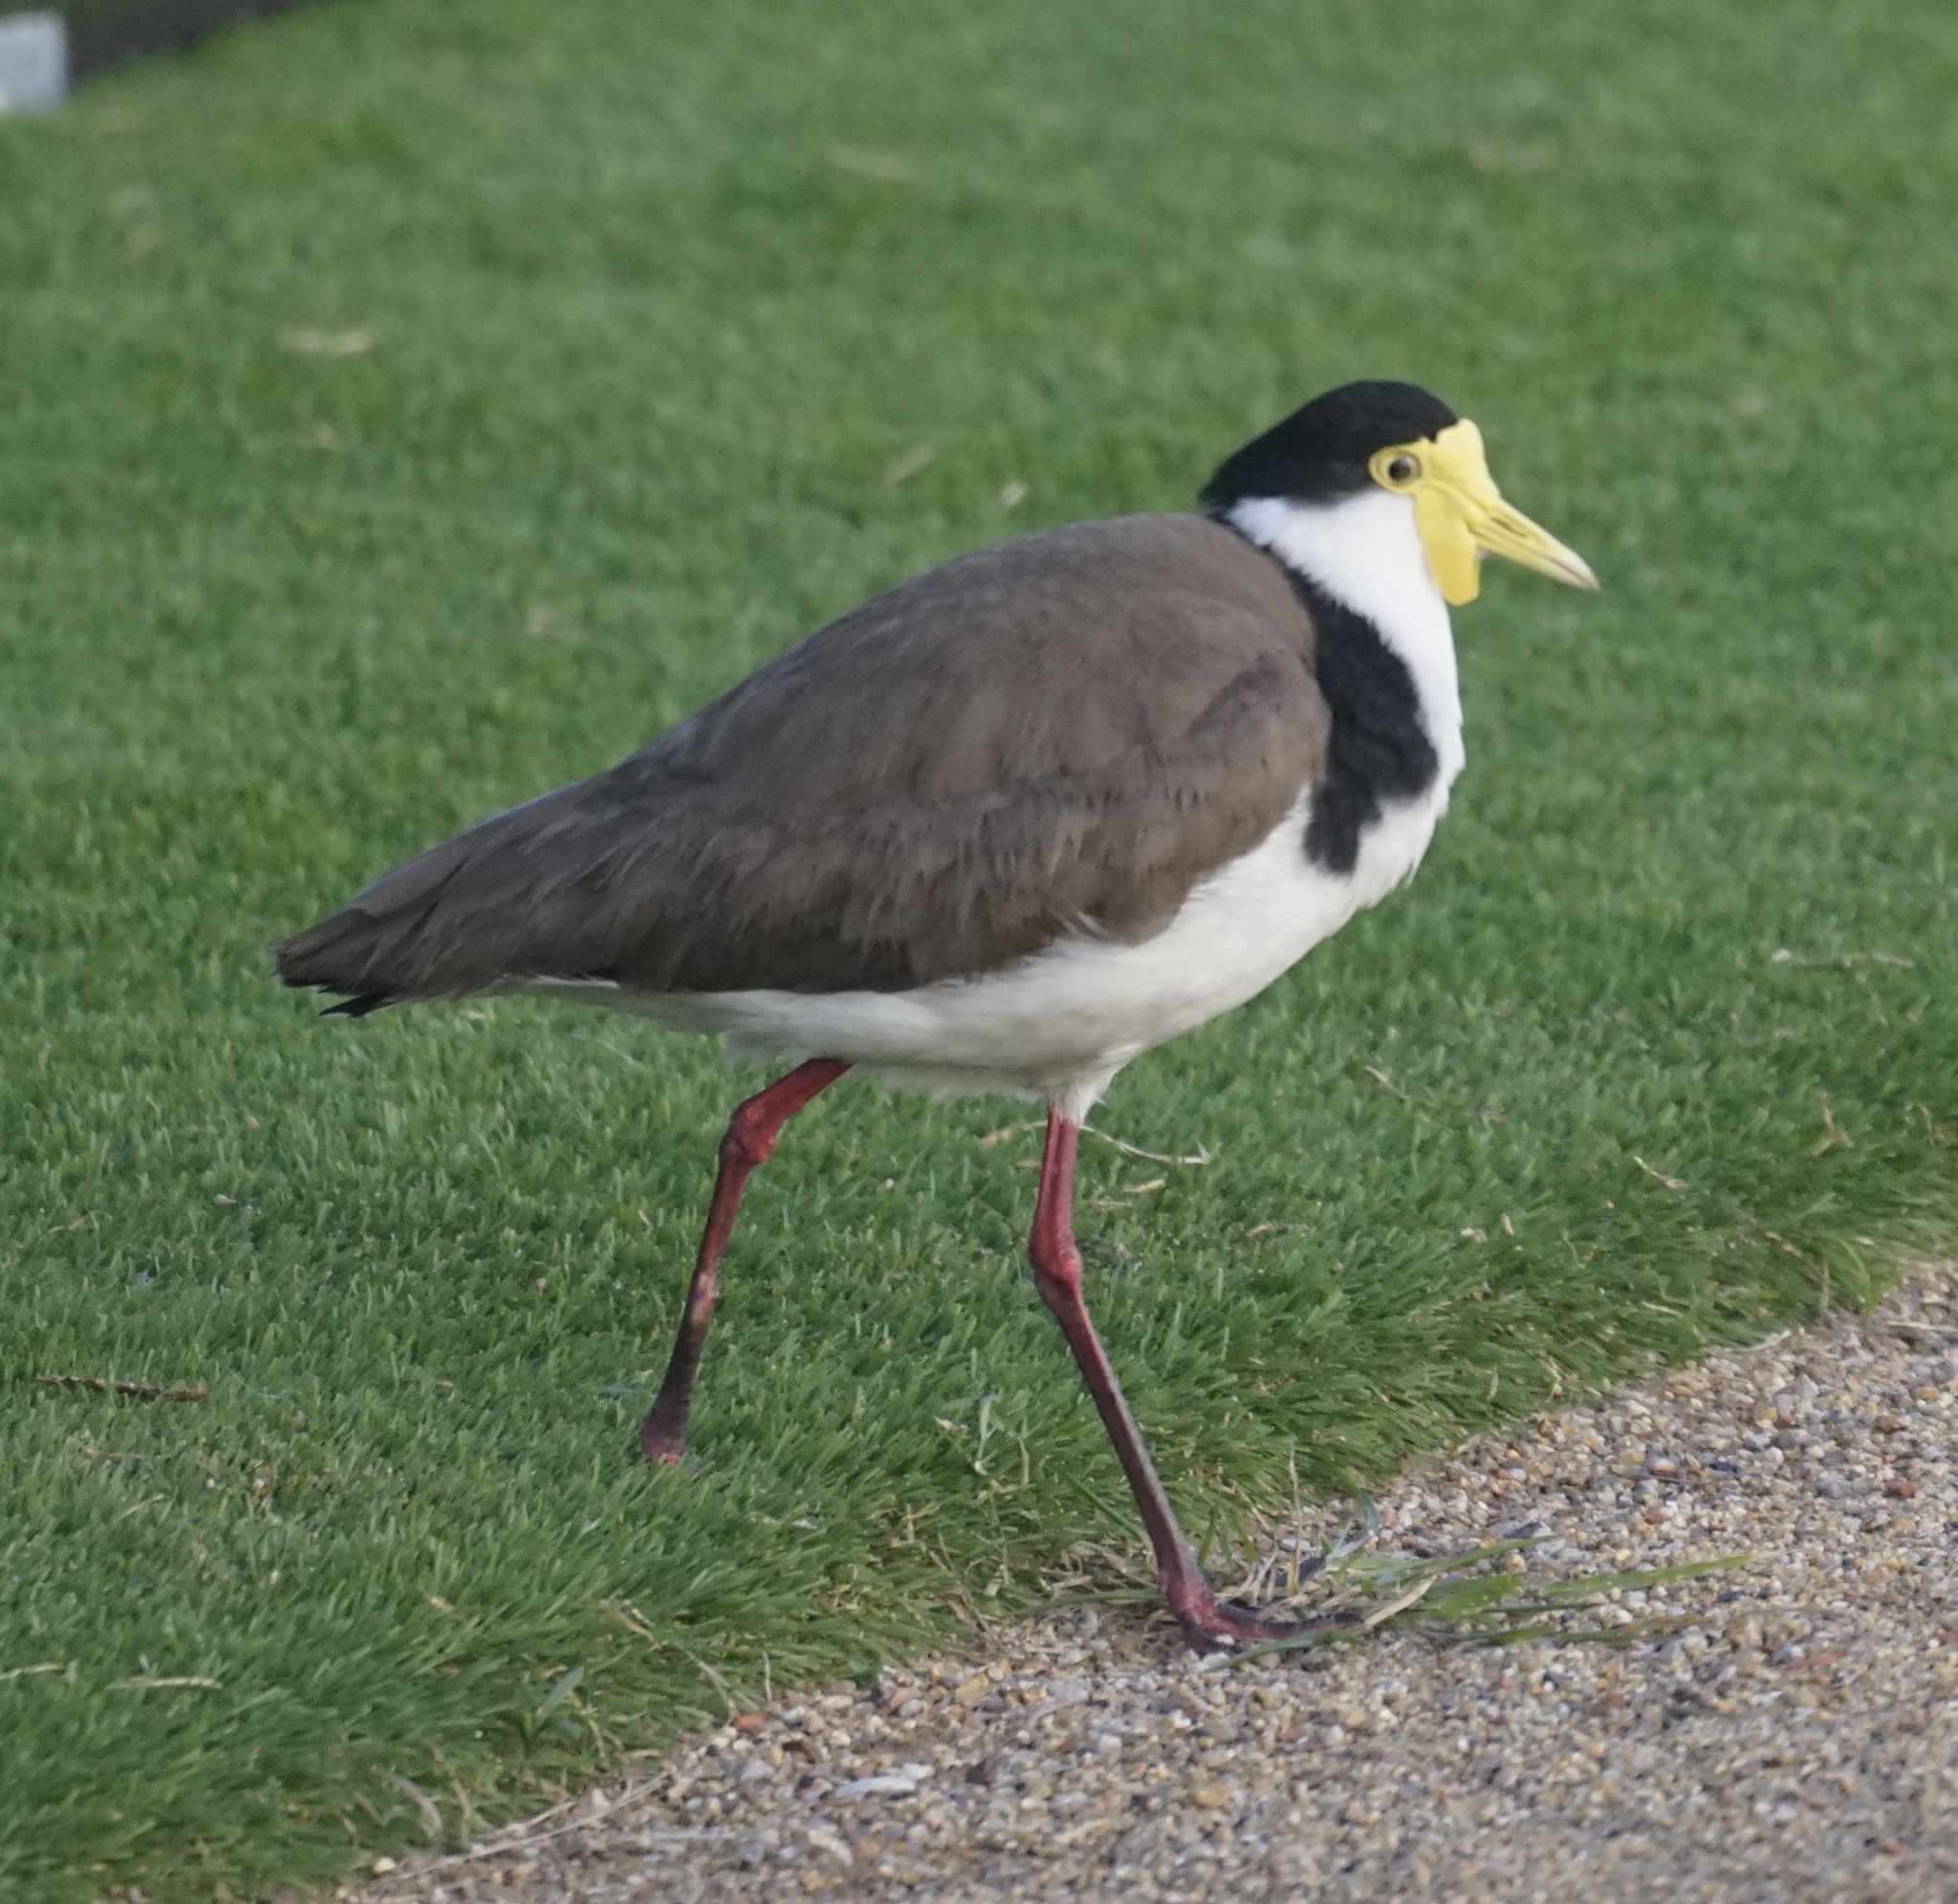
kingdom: Animalia
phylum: Chordata
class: Aves
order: Charadriiformes
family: Charadriidae
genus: Vanellus
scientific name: Vanellus miles
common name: Masked lapwing
